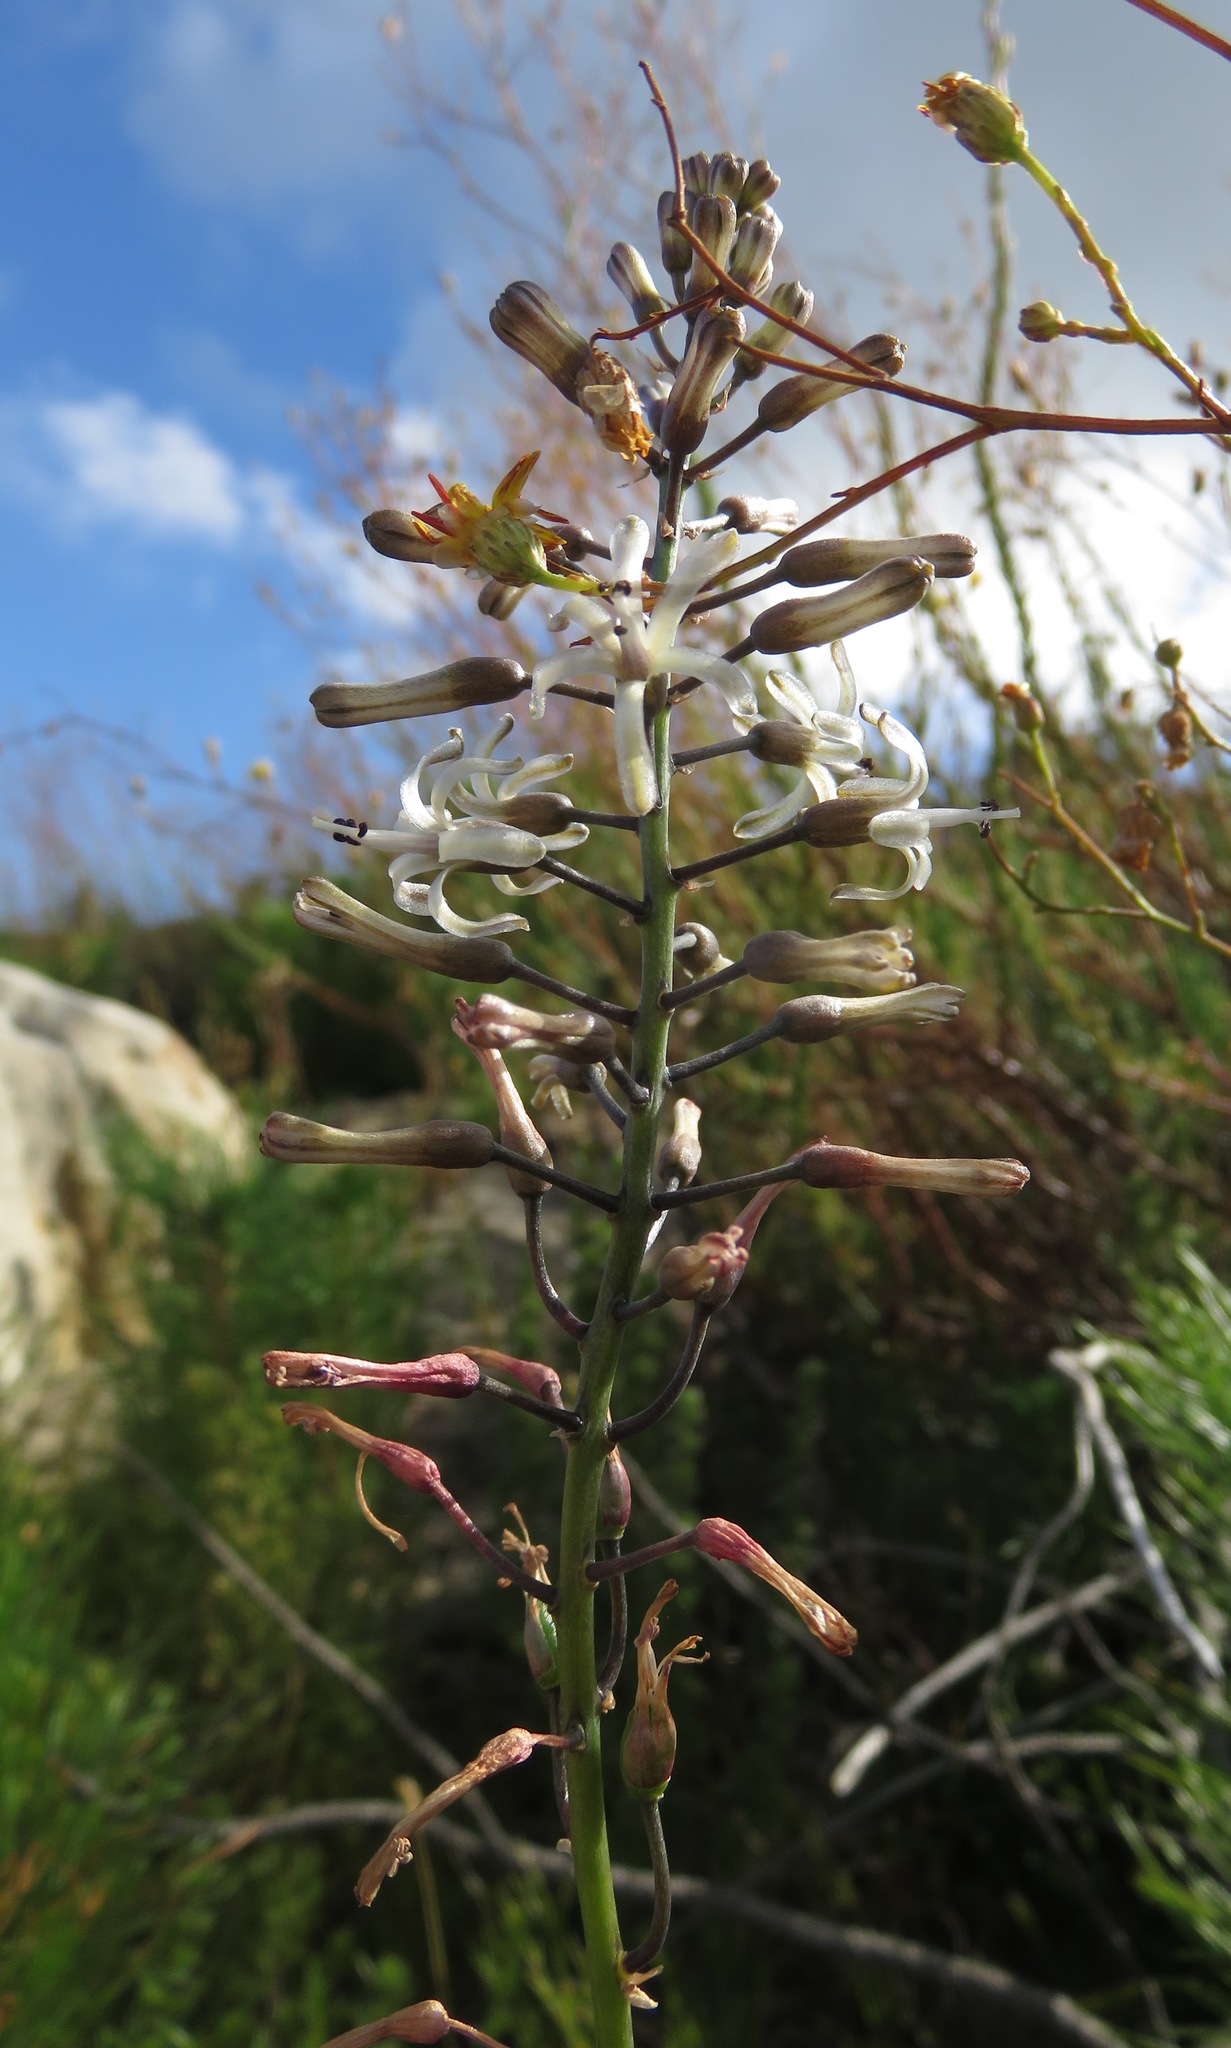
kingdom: Plantae
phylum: Tracheophyta
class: Liliopsida
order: Asparagales
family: Asparagaceae
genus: Drimia
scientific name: Drimia media
